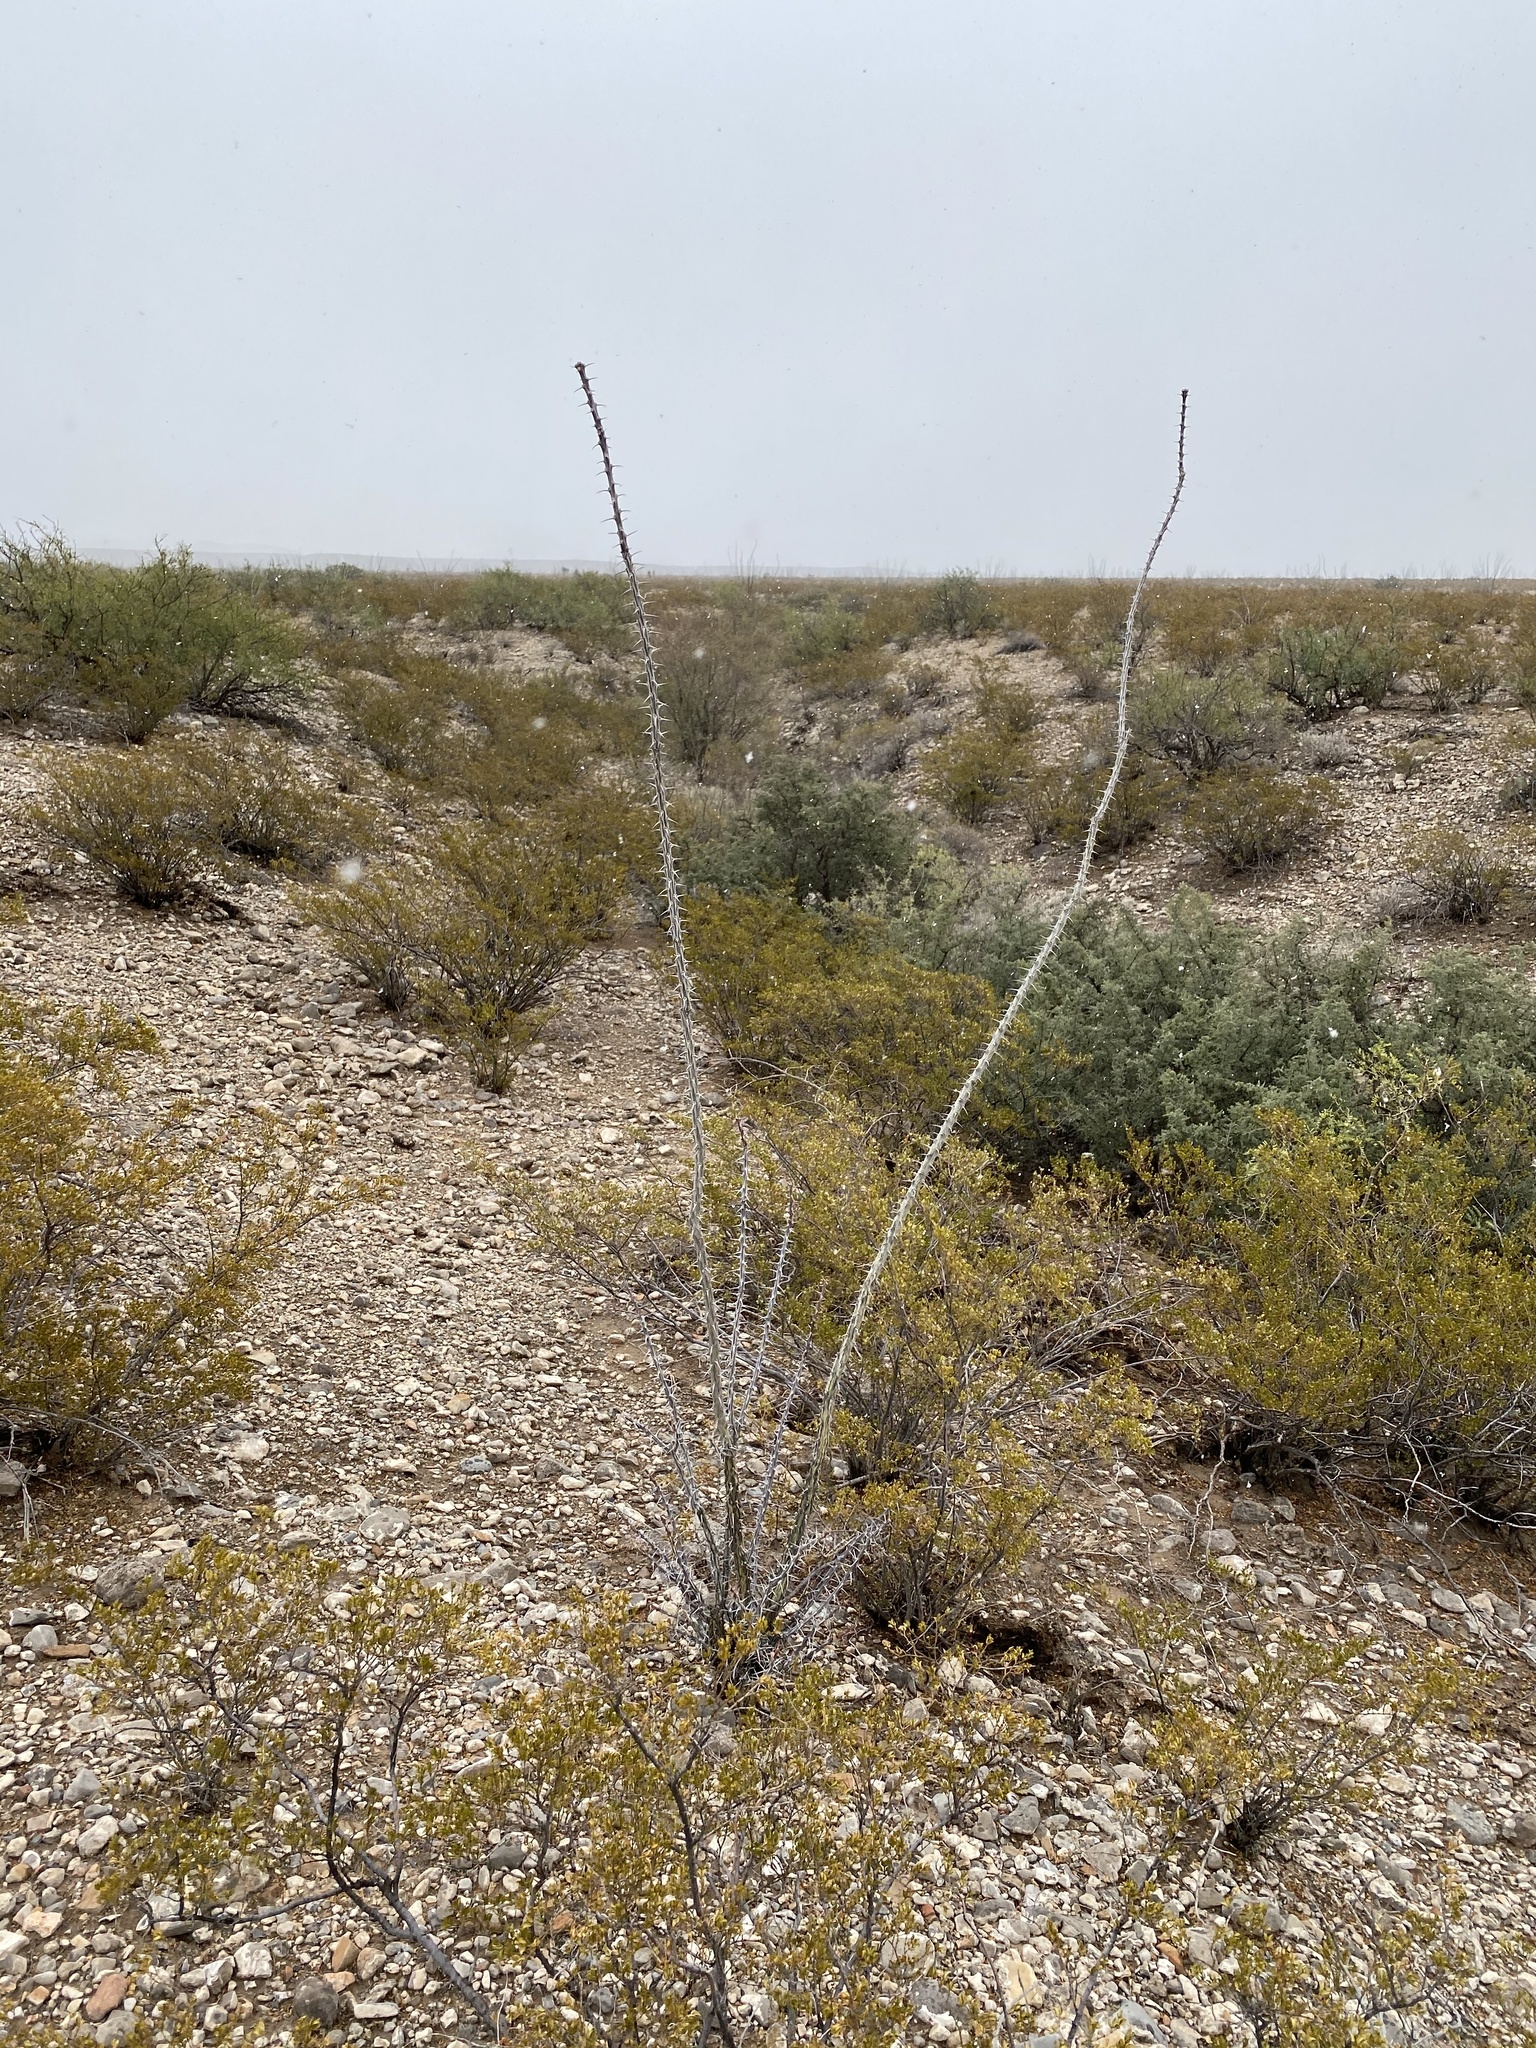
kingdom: Plantae
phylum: Tracheophyta
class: Magnoliopsida
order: Ericales
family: Fouquieriaceae
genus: Fouquieria
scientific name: Fouquieria splendens
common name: Vine-cactus
